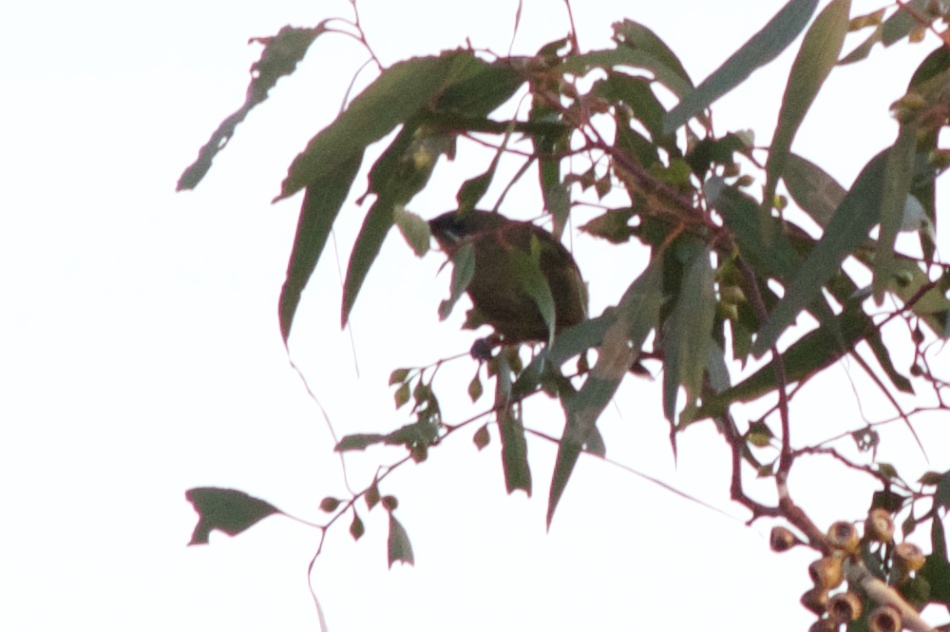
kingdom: Animalia
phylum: Chordata
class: Aves
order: Passeriformes
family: Meliphagidae
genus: Anthornis
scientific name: Anthornis melanura
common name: New zealand bellbird
